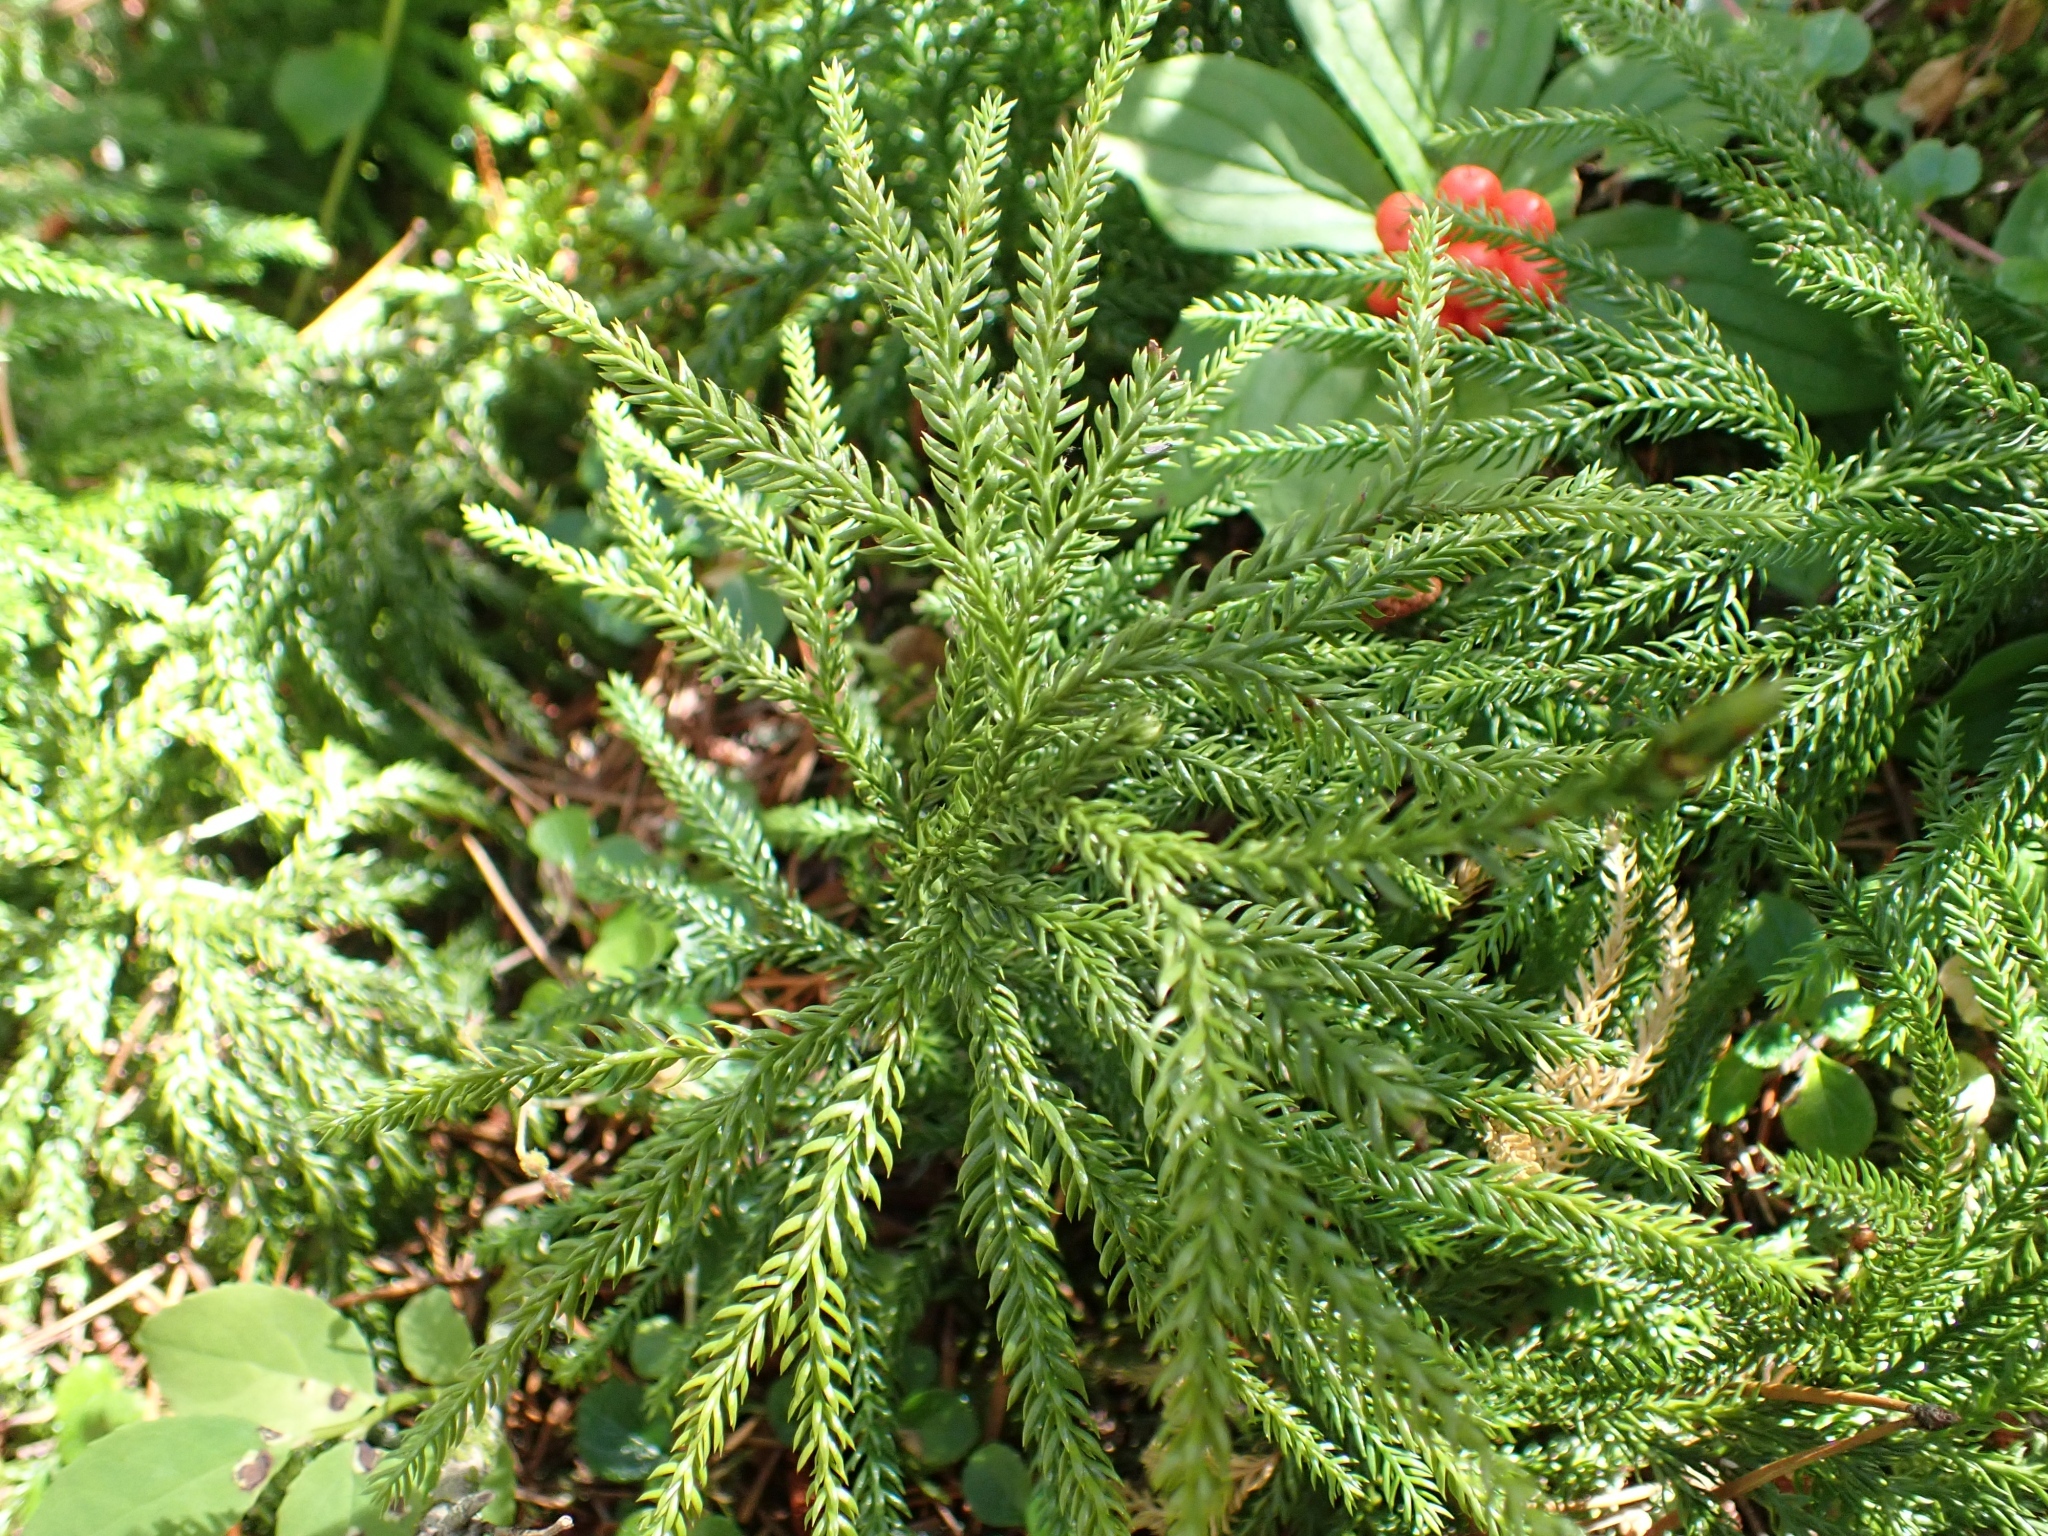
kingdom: Plantae
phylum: Tracheophyta
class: Lycopodiopsida
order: Lycopodiales
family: Lycopodiaceae
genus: Dendrolycopodium
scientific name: Dendrolycopodium dendroideum
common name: Northern tree-clubmoss
